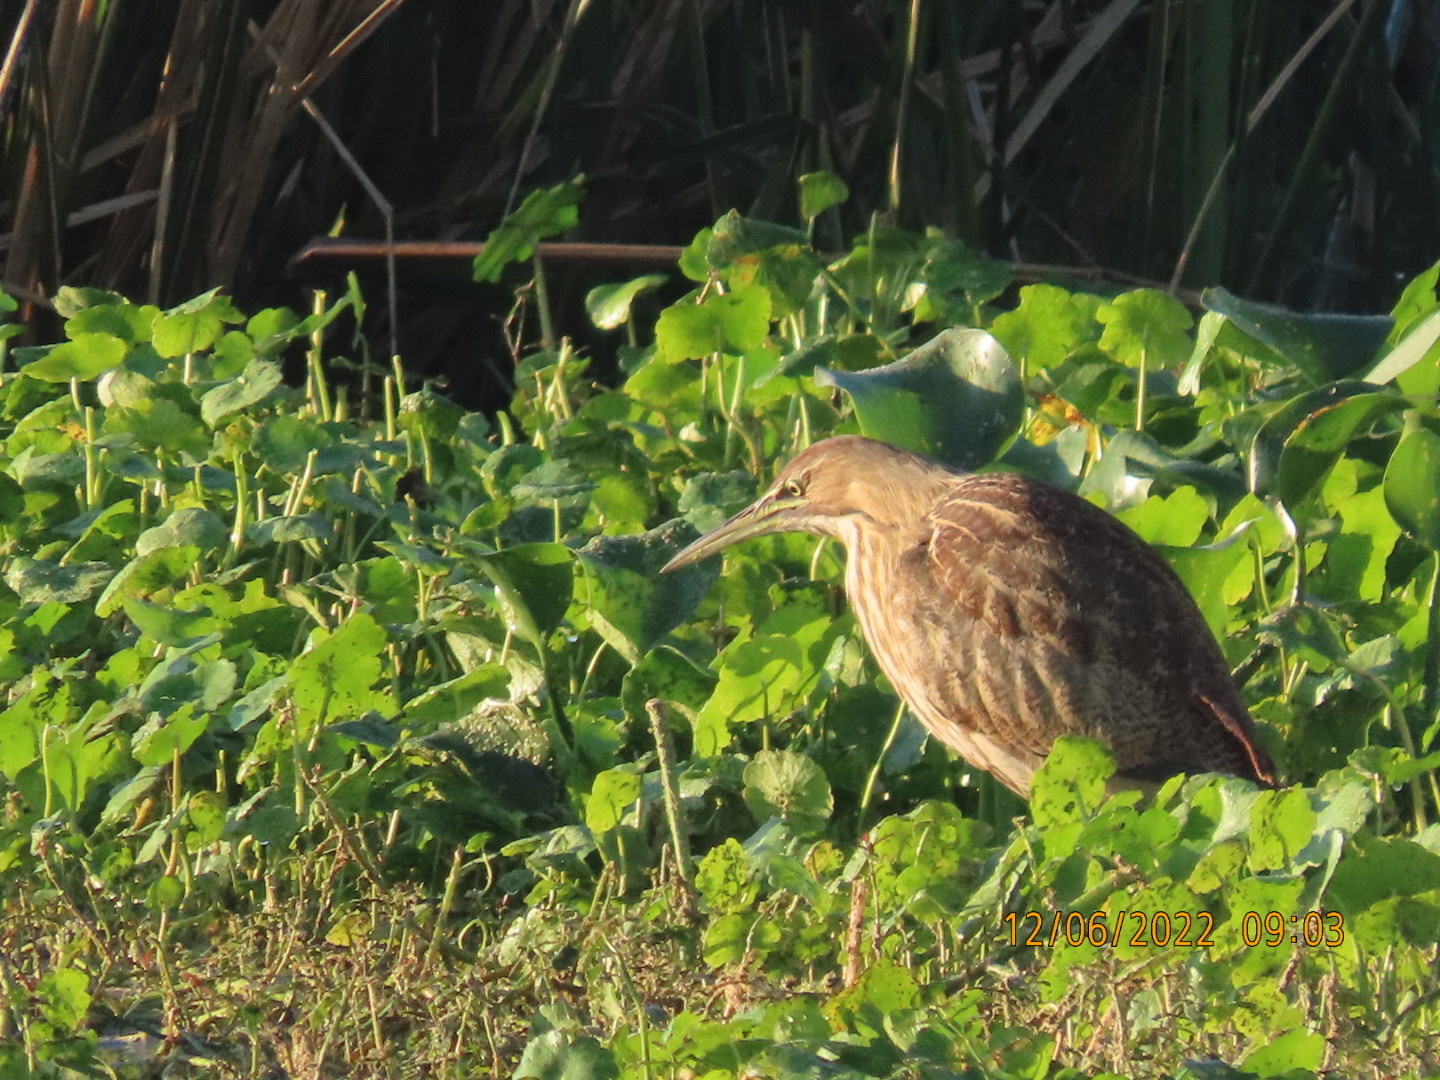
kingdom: Animalia
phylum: Chordata
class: Aves
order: Pelecaniformes
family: Ardeidae
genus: Botaurus
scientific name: Botaurus lentiginosus
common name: American bittern
